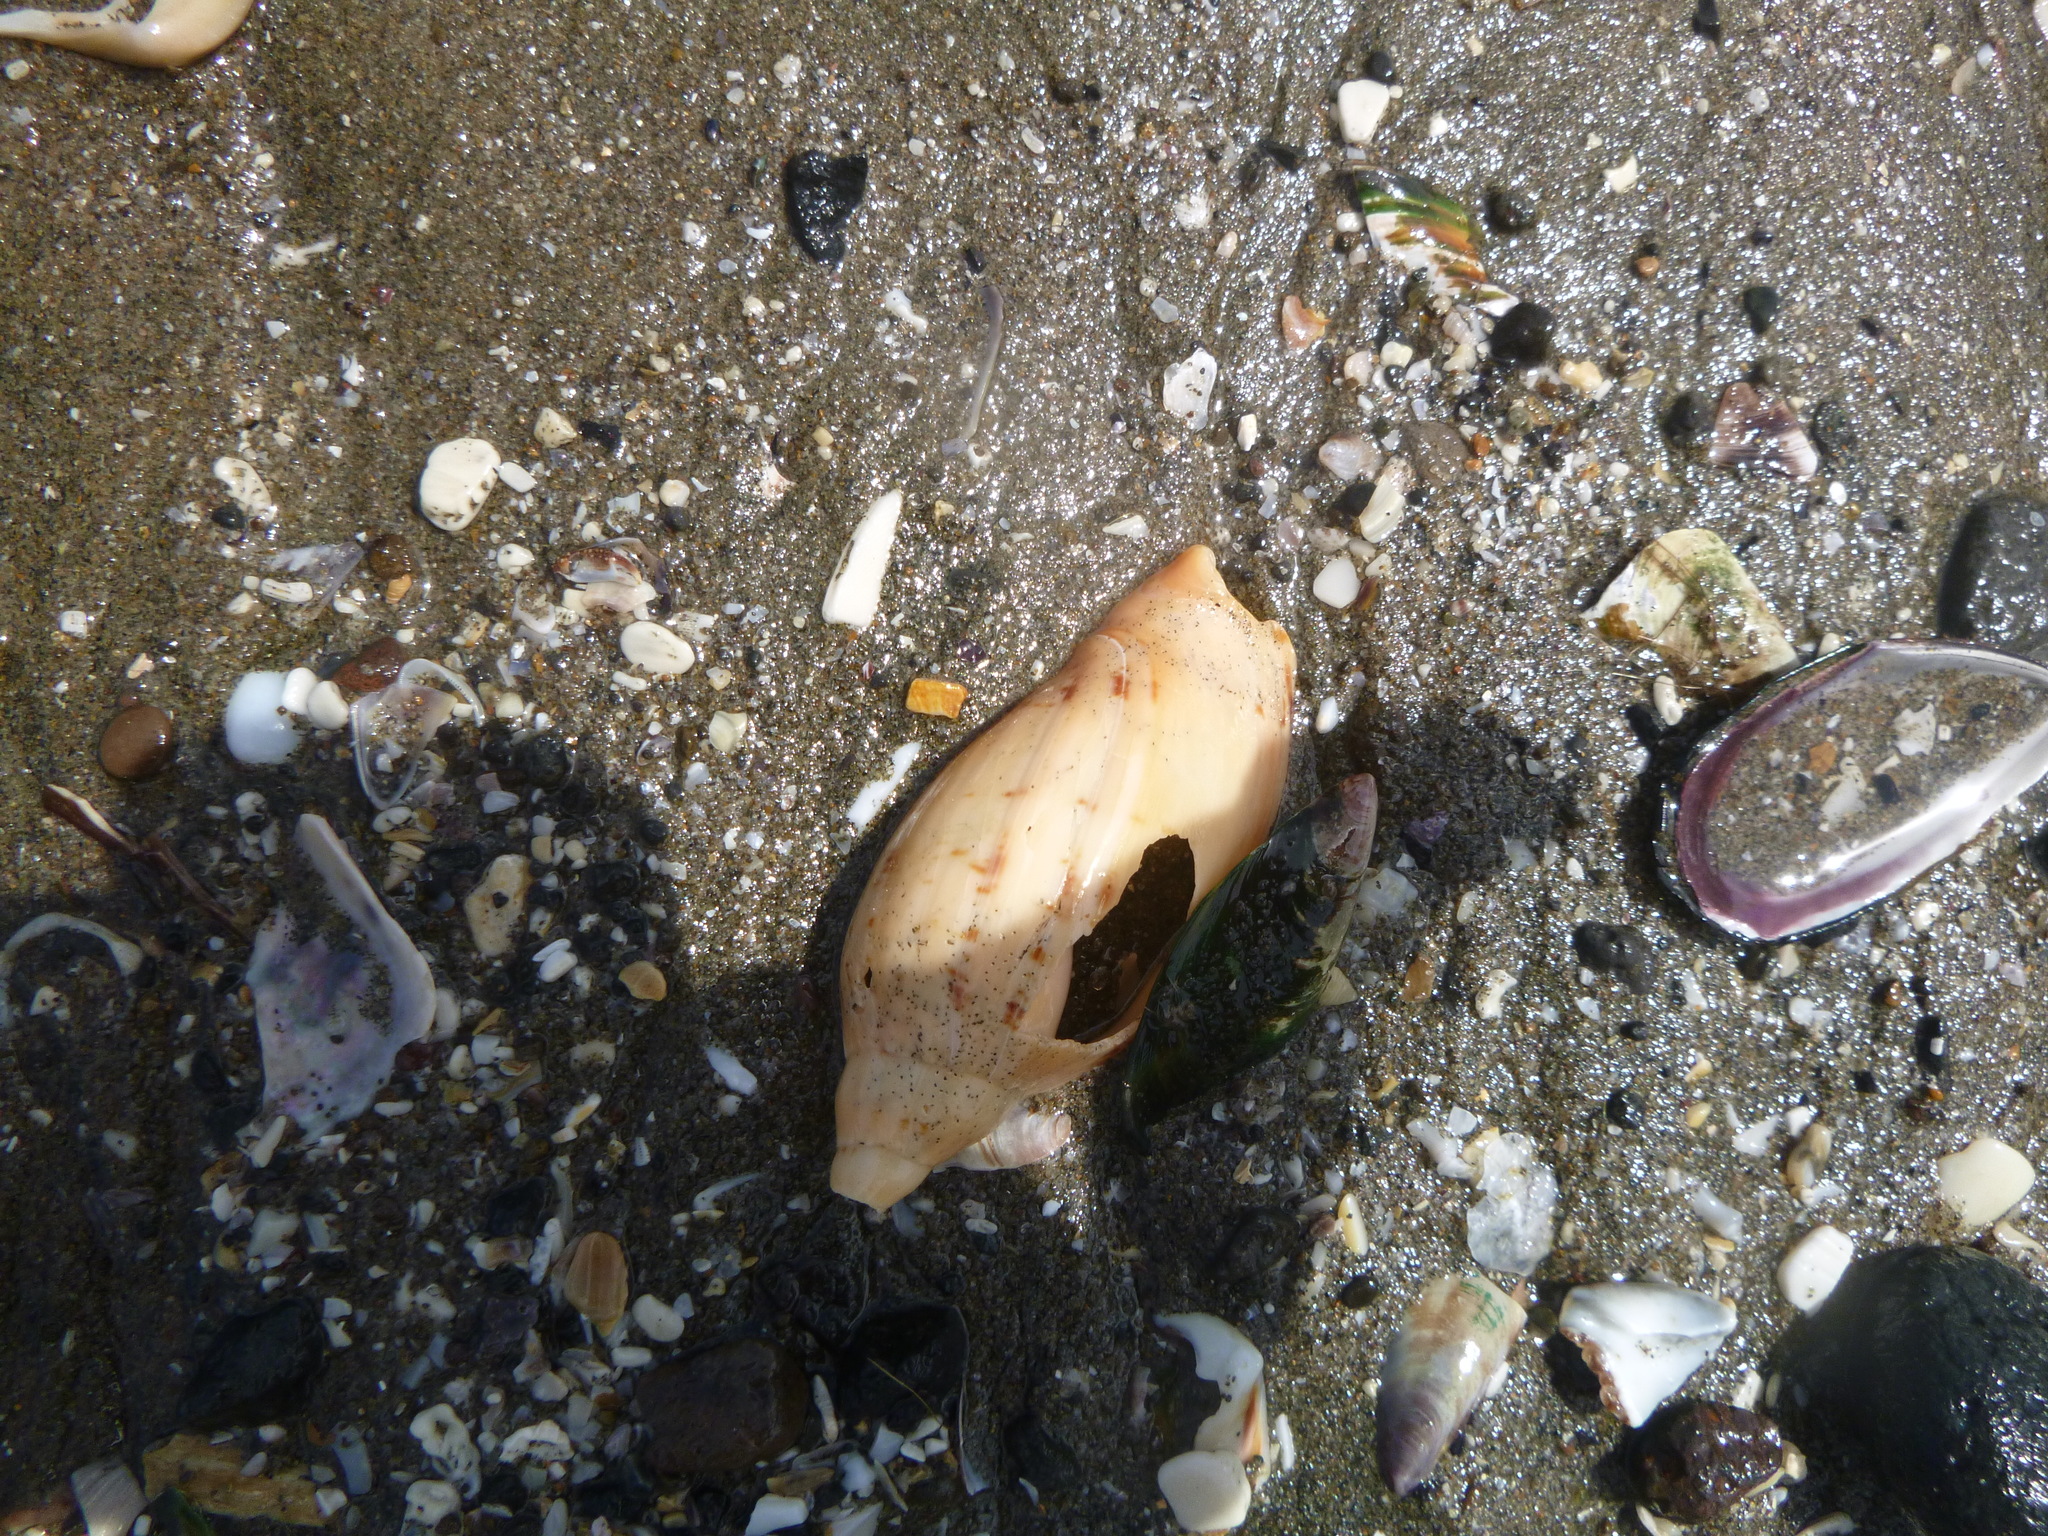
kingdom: Animalia
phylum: Mollusca
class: Gastropoda
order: Neogastropoda
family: Volutidae
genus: Alcithoe
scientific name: Alcithoe arabica
